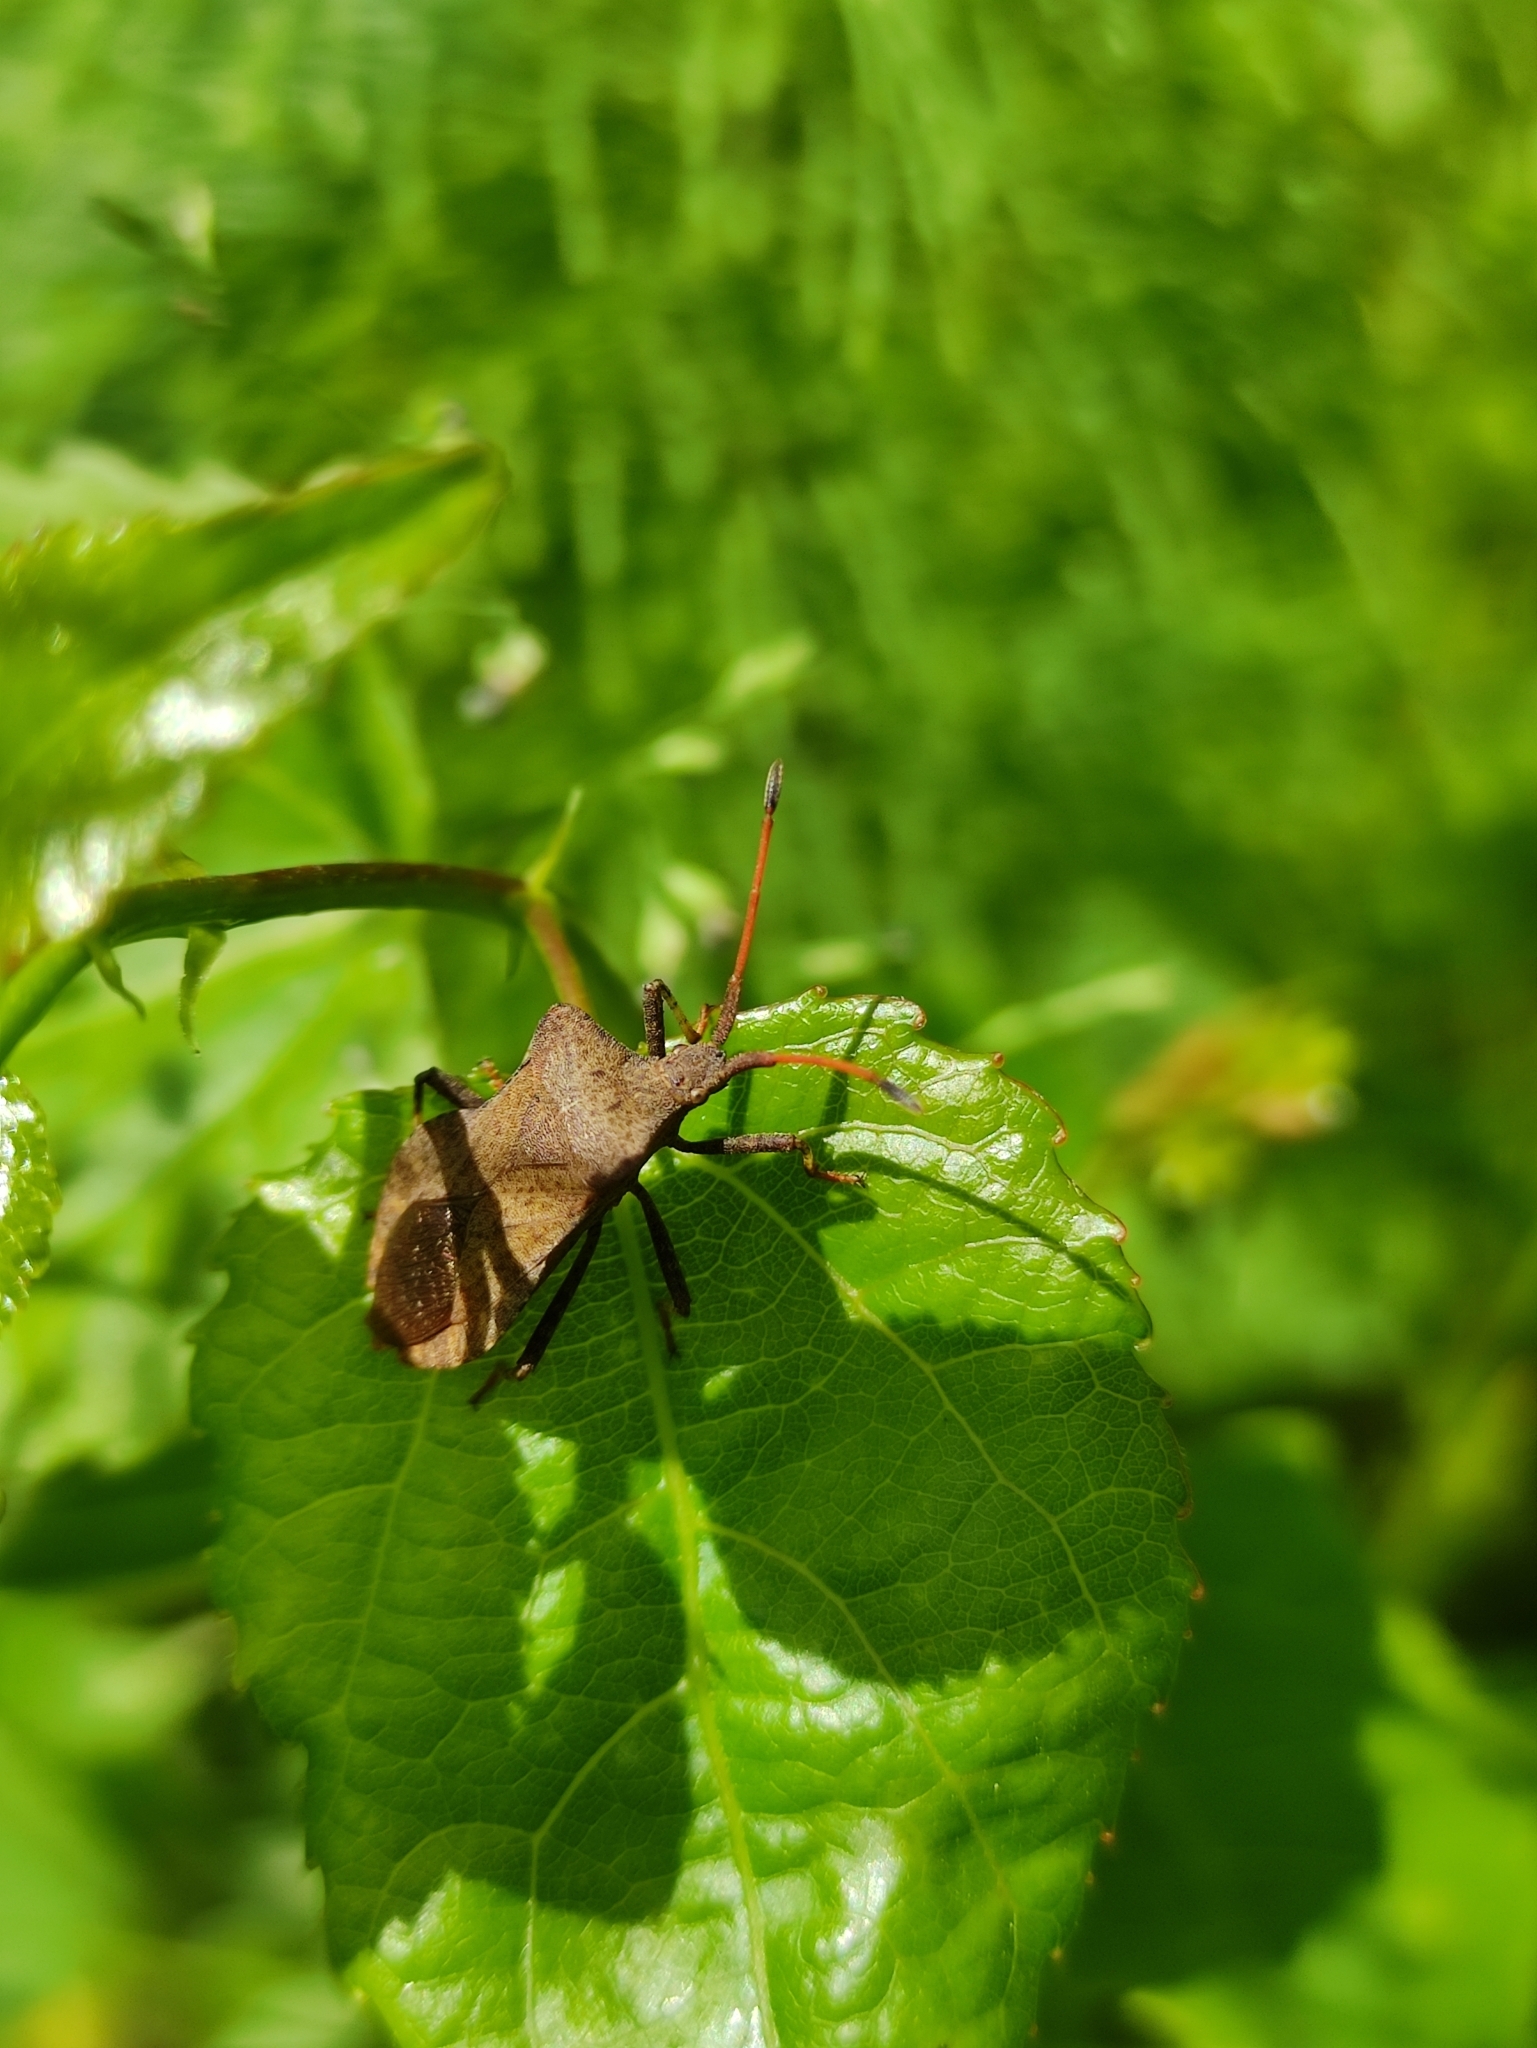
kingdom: Animalia
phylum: Arthropoda
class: Insecta
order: Hemiptera
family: Coreidae
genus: Coreus
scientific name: Coreus marginatus
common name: Dock bug
